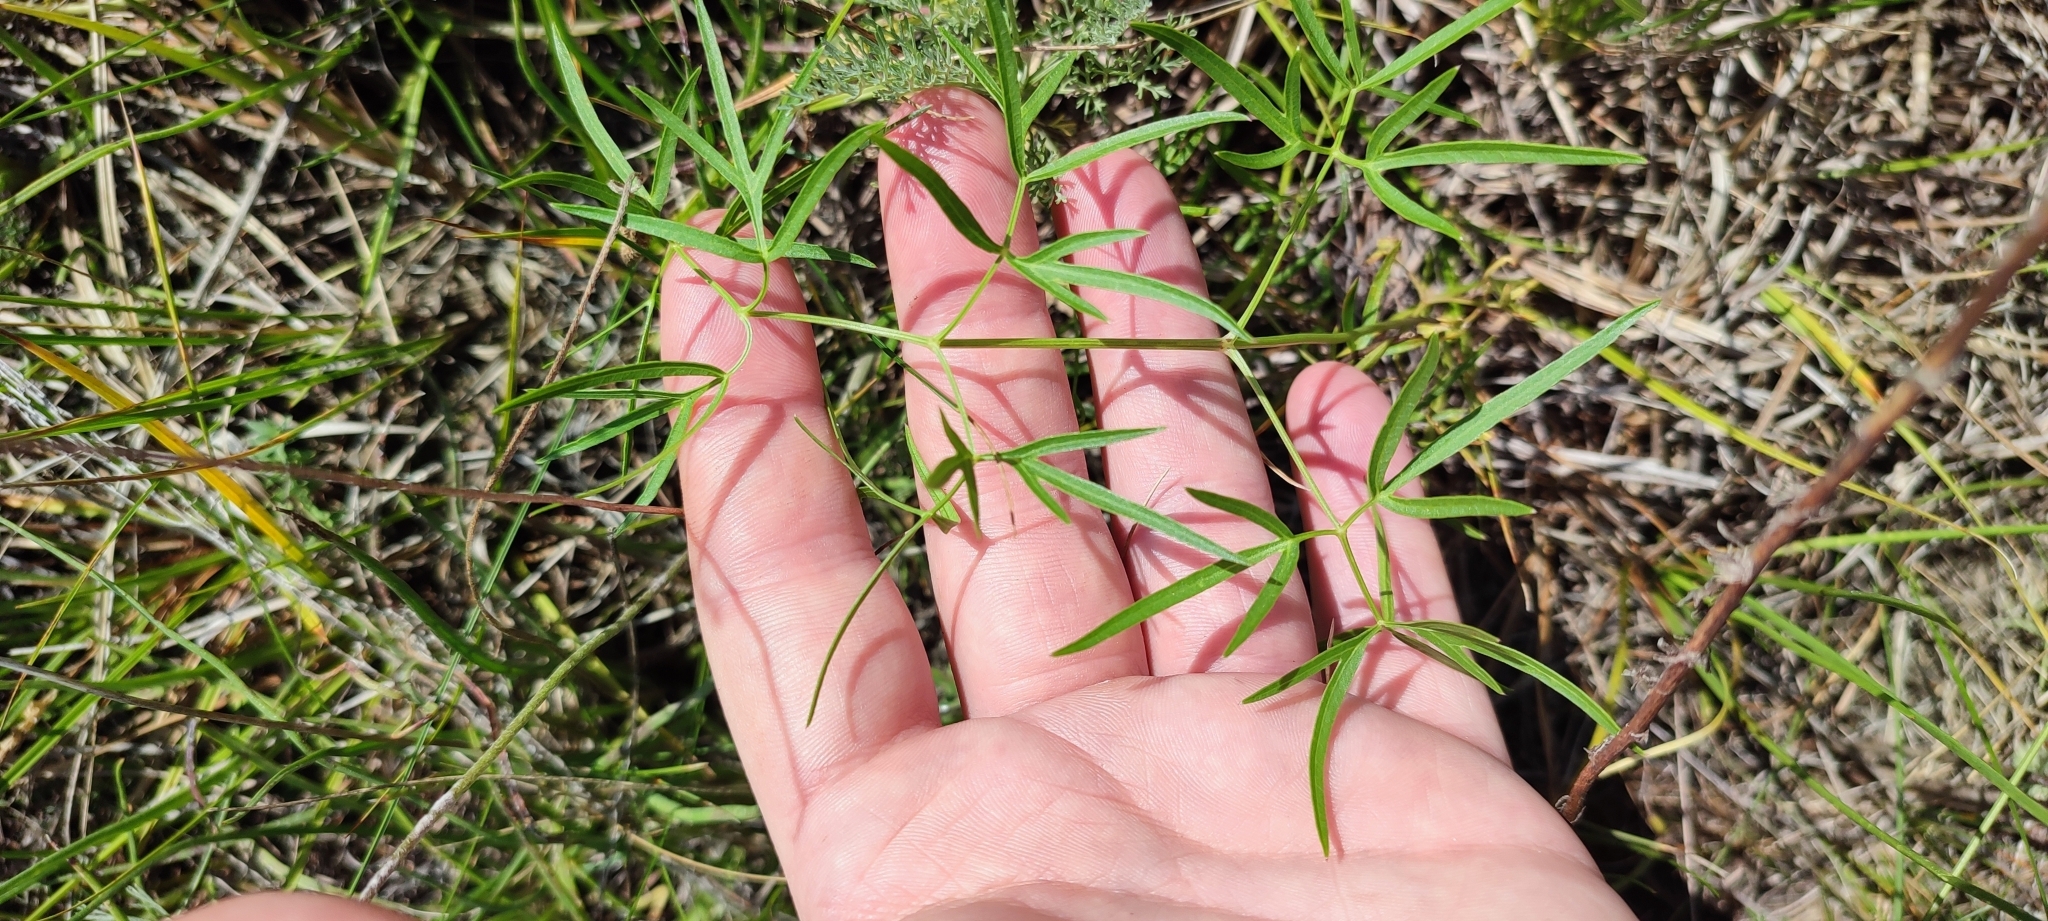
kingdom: Plantae
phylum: Tracheophyta
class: Magnoliopsida
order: Apiales
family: Apiaceae
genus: Cenolophium
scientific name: Cenolophium fischeri
